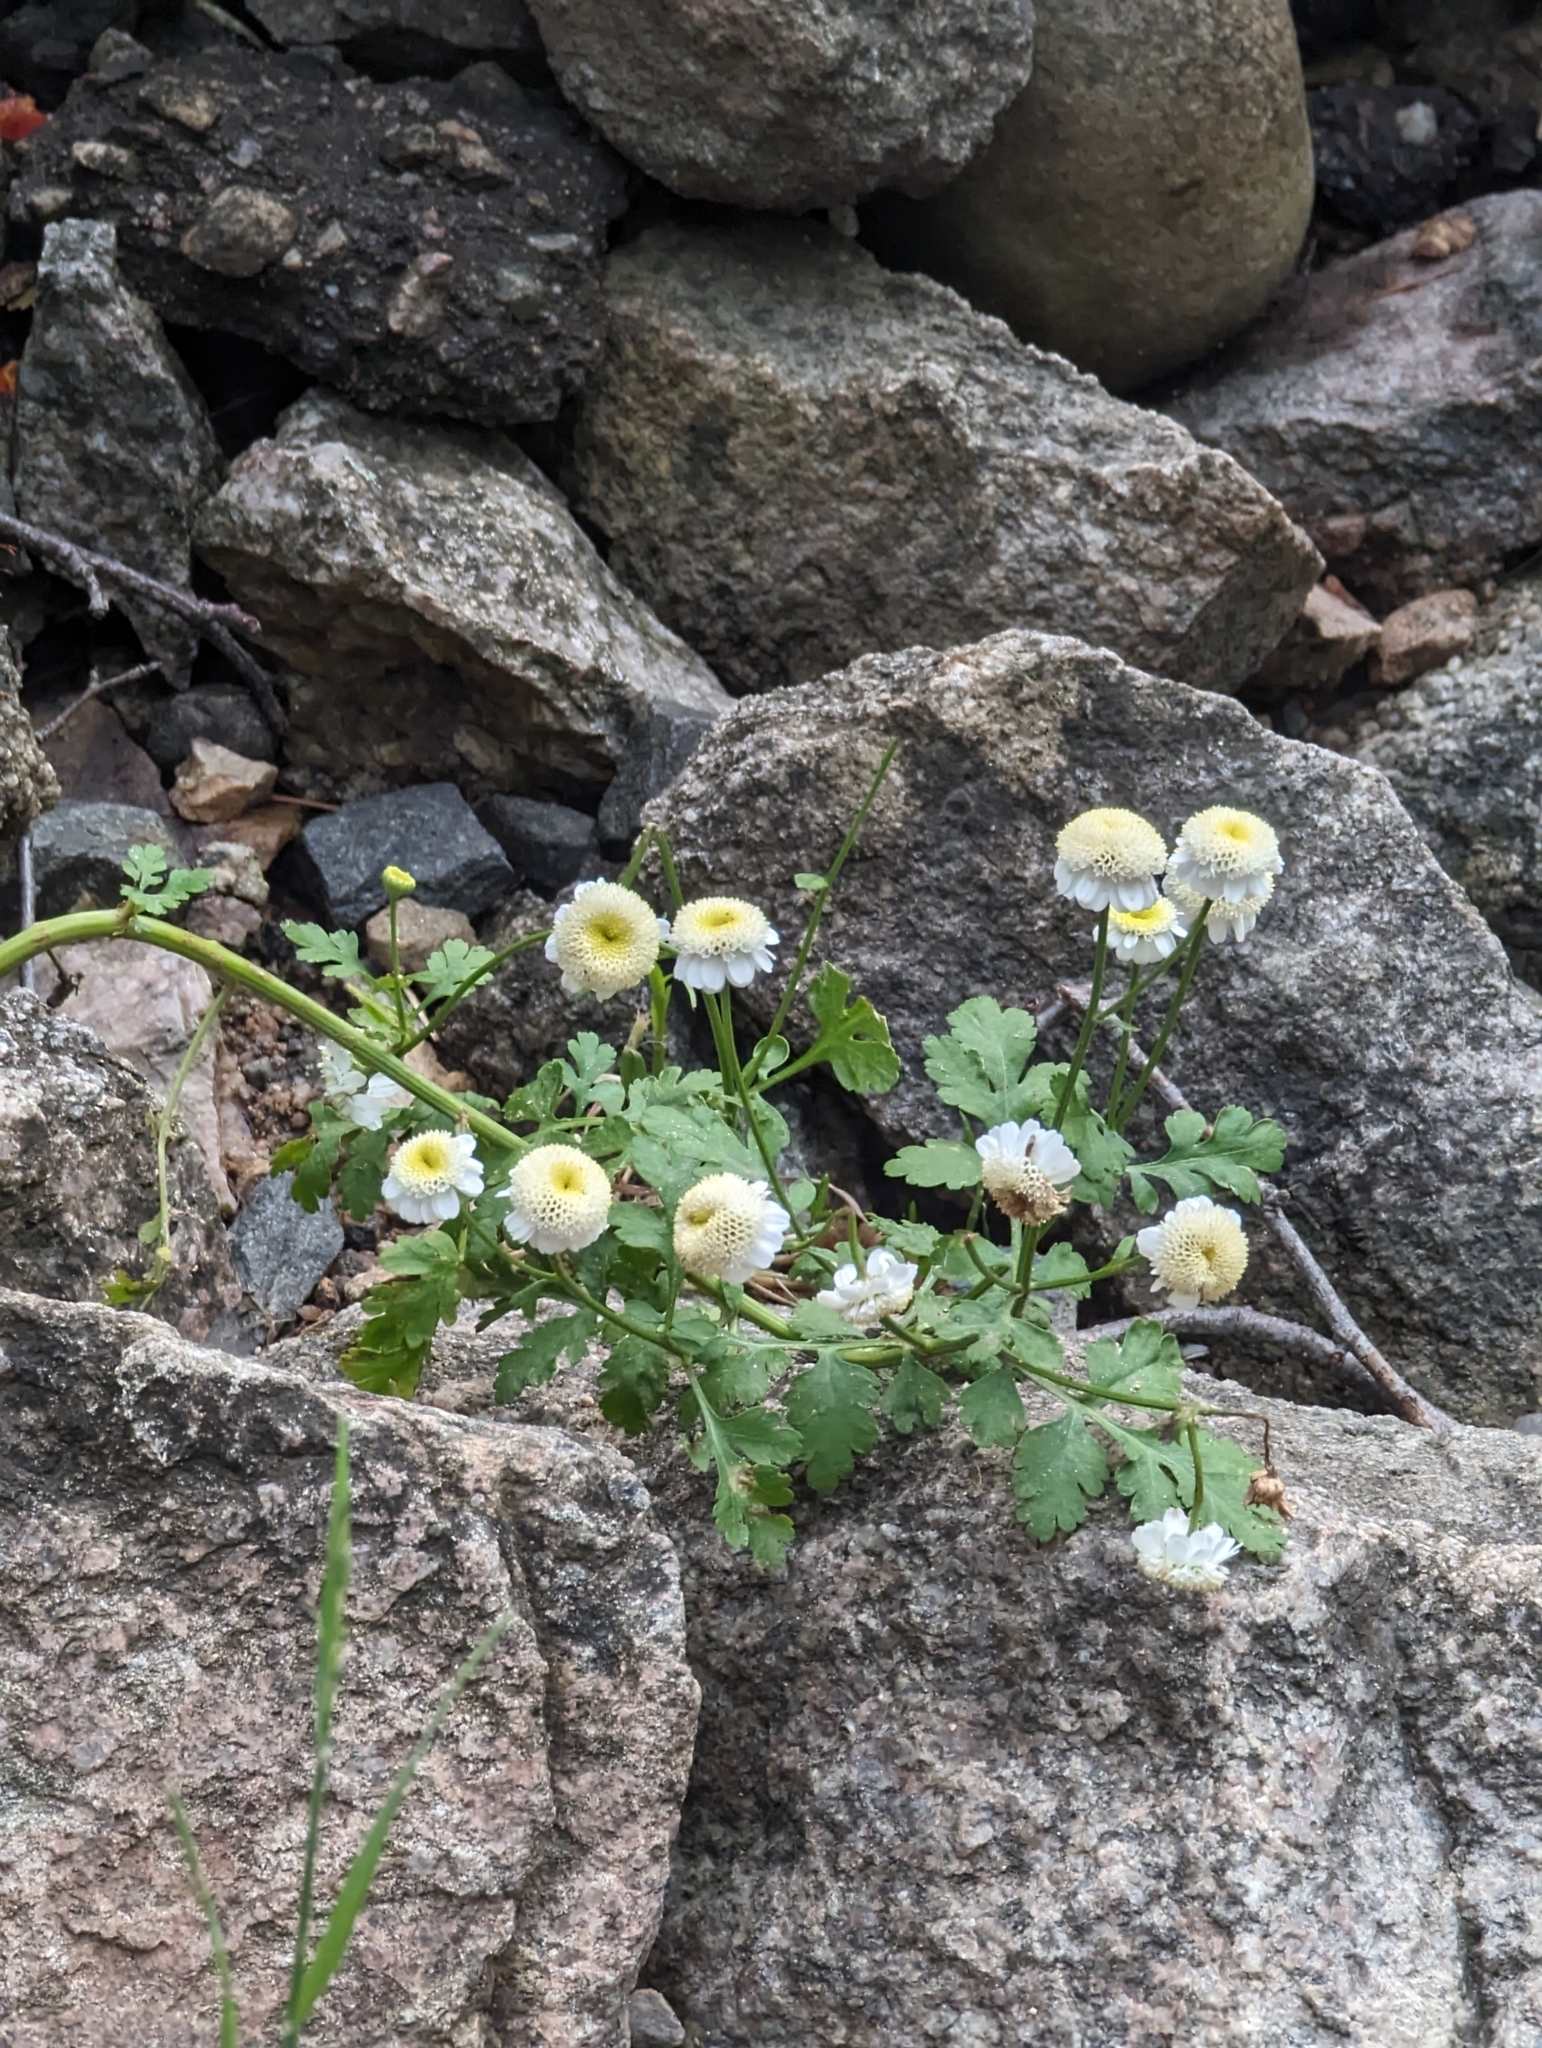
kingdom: Plantae
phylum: Tracheophyta
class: Magnoliopsida
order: Asterales
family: Asteraceae
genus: Tanacetum
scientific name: Tanacetum parthenium
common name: Feverfew
